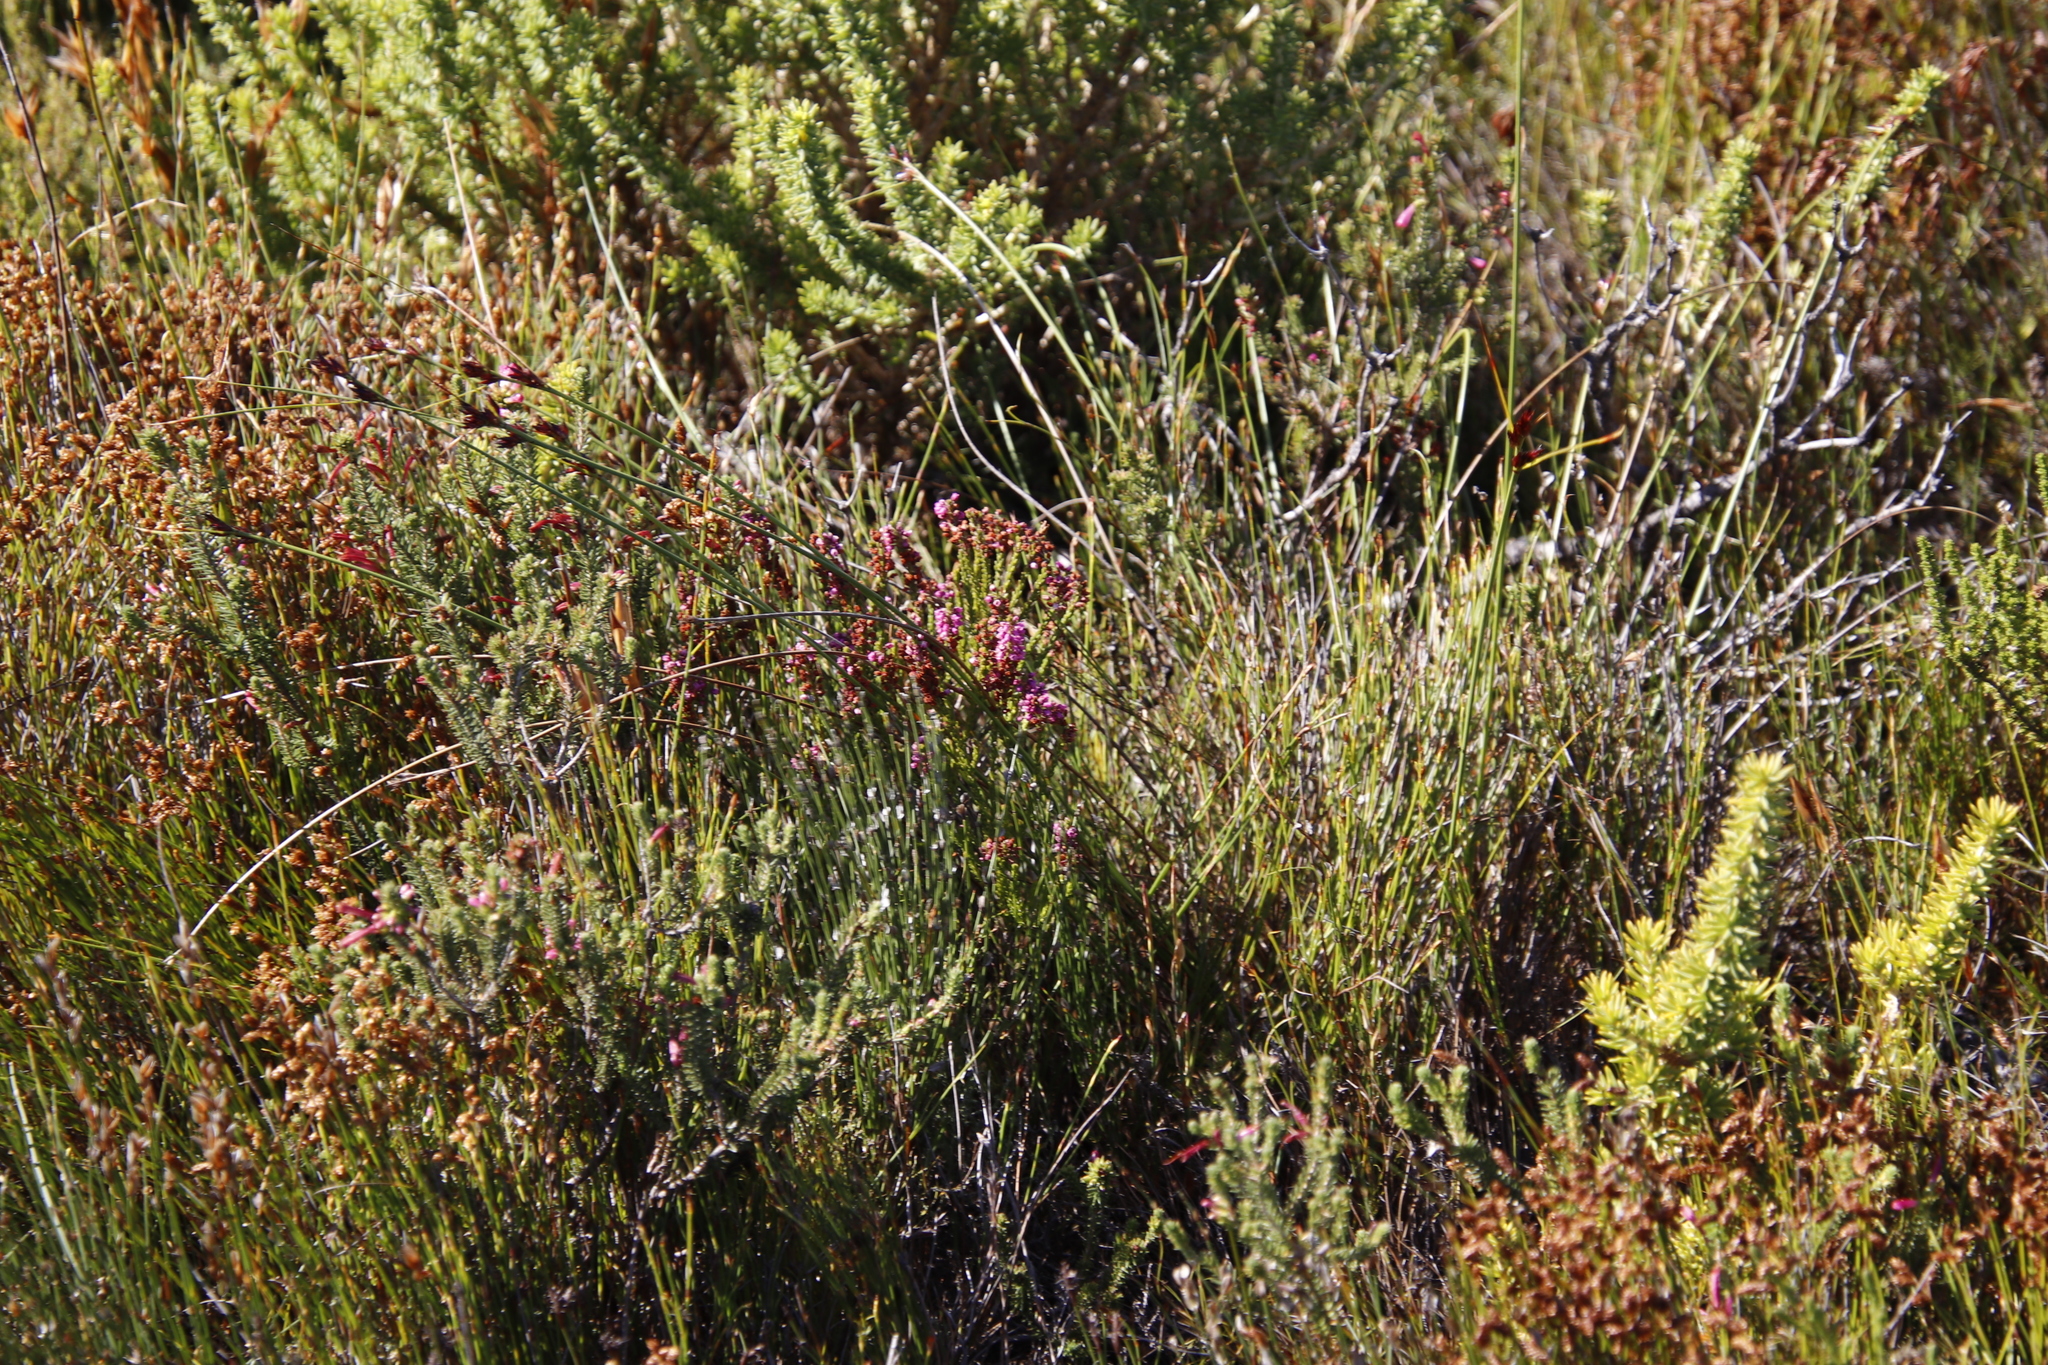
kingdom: Plantae
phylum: Tracheophyta
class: Magnoliopsida
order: Ericales
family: Ericaceae
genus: Erica
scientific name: Erica pulchella
